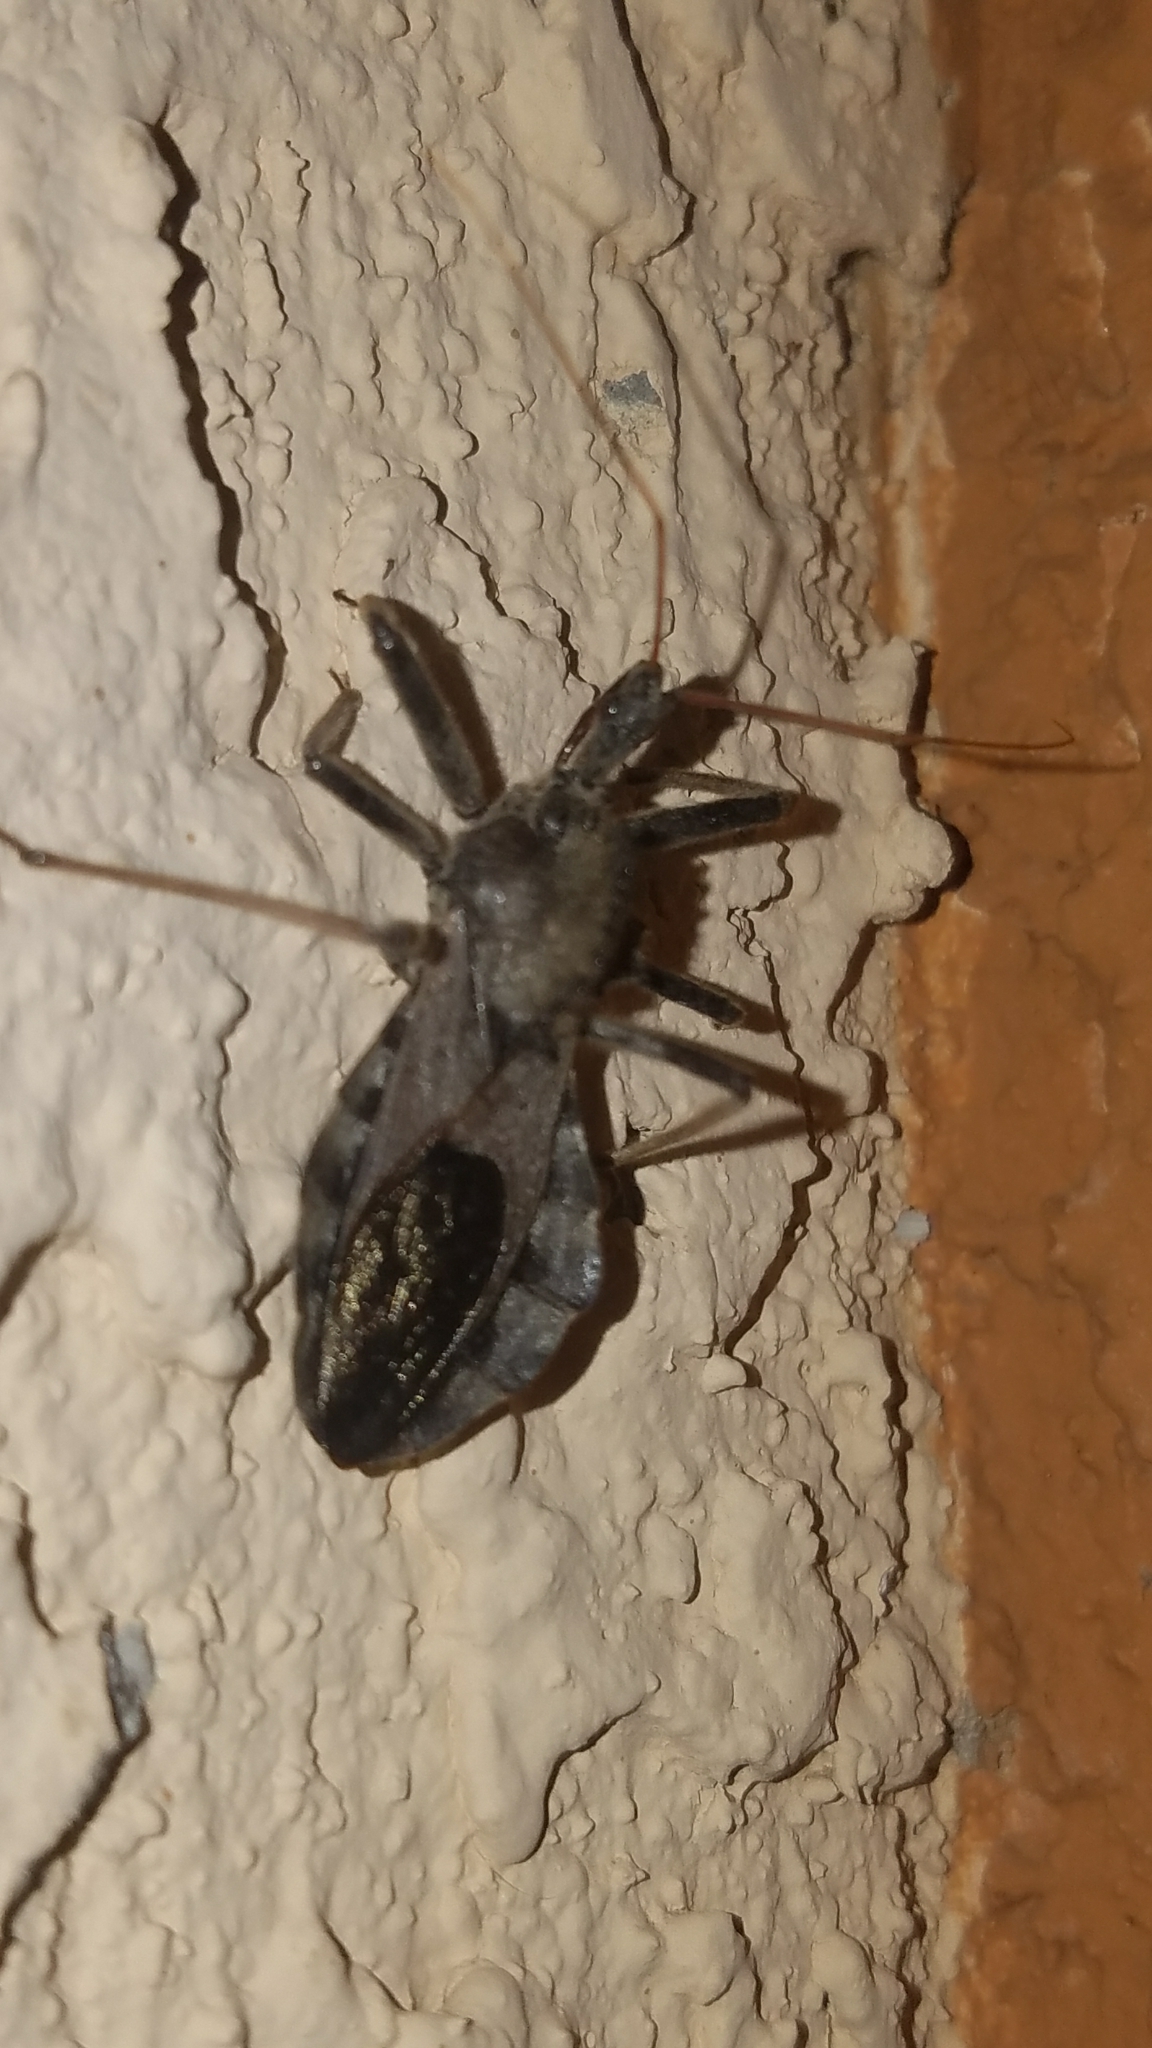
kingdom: Animalia
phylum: Arthropoda
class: Insecta
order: Hemiptera
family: Reduviidae
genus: Arilus
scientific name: Arilus cristatus
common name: North american wheel bug
